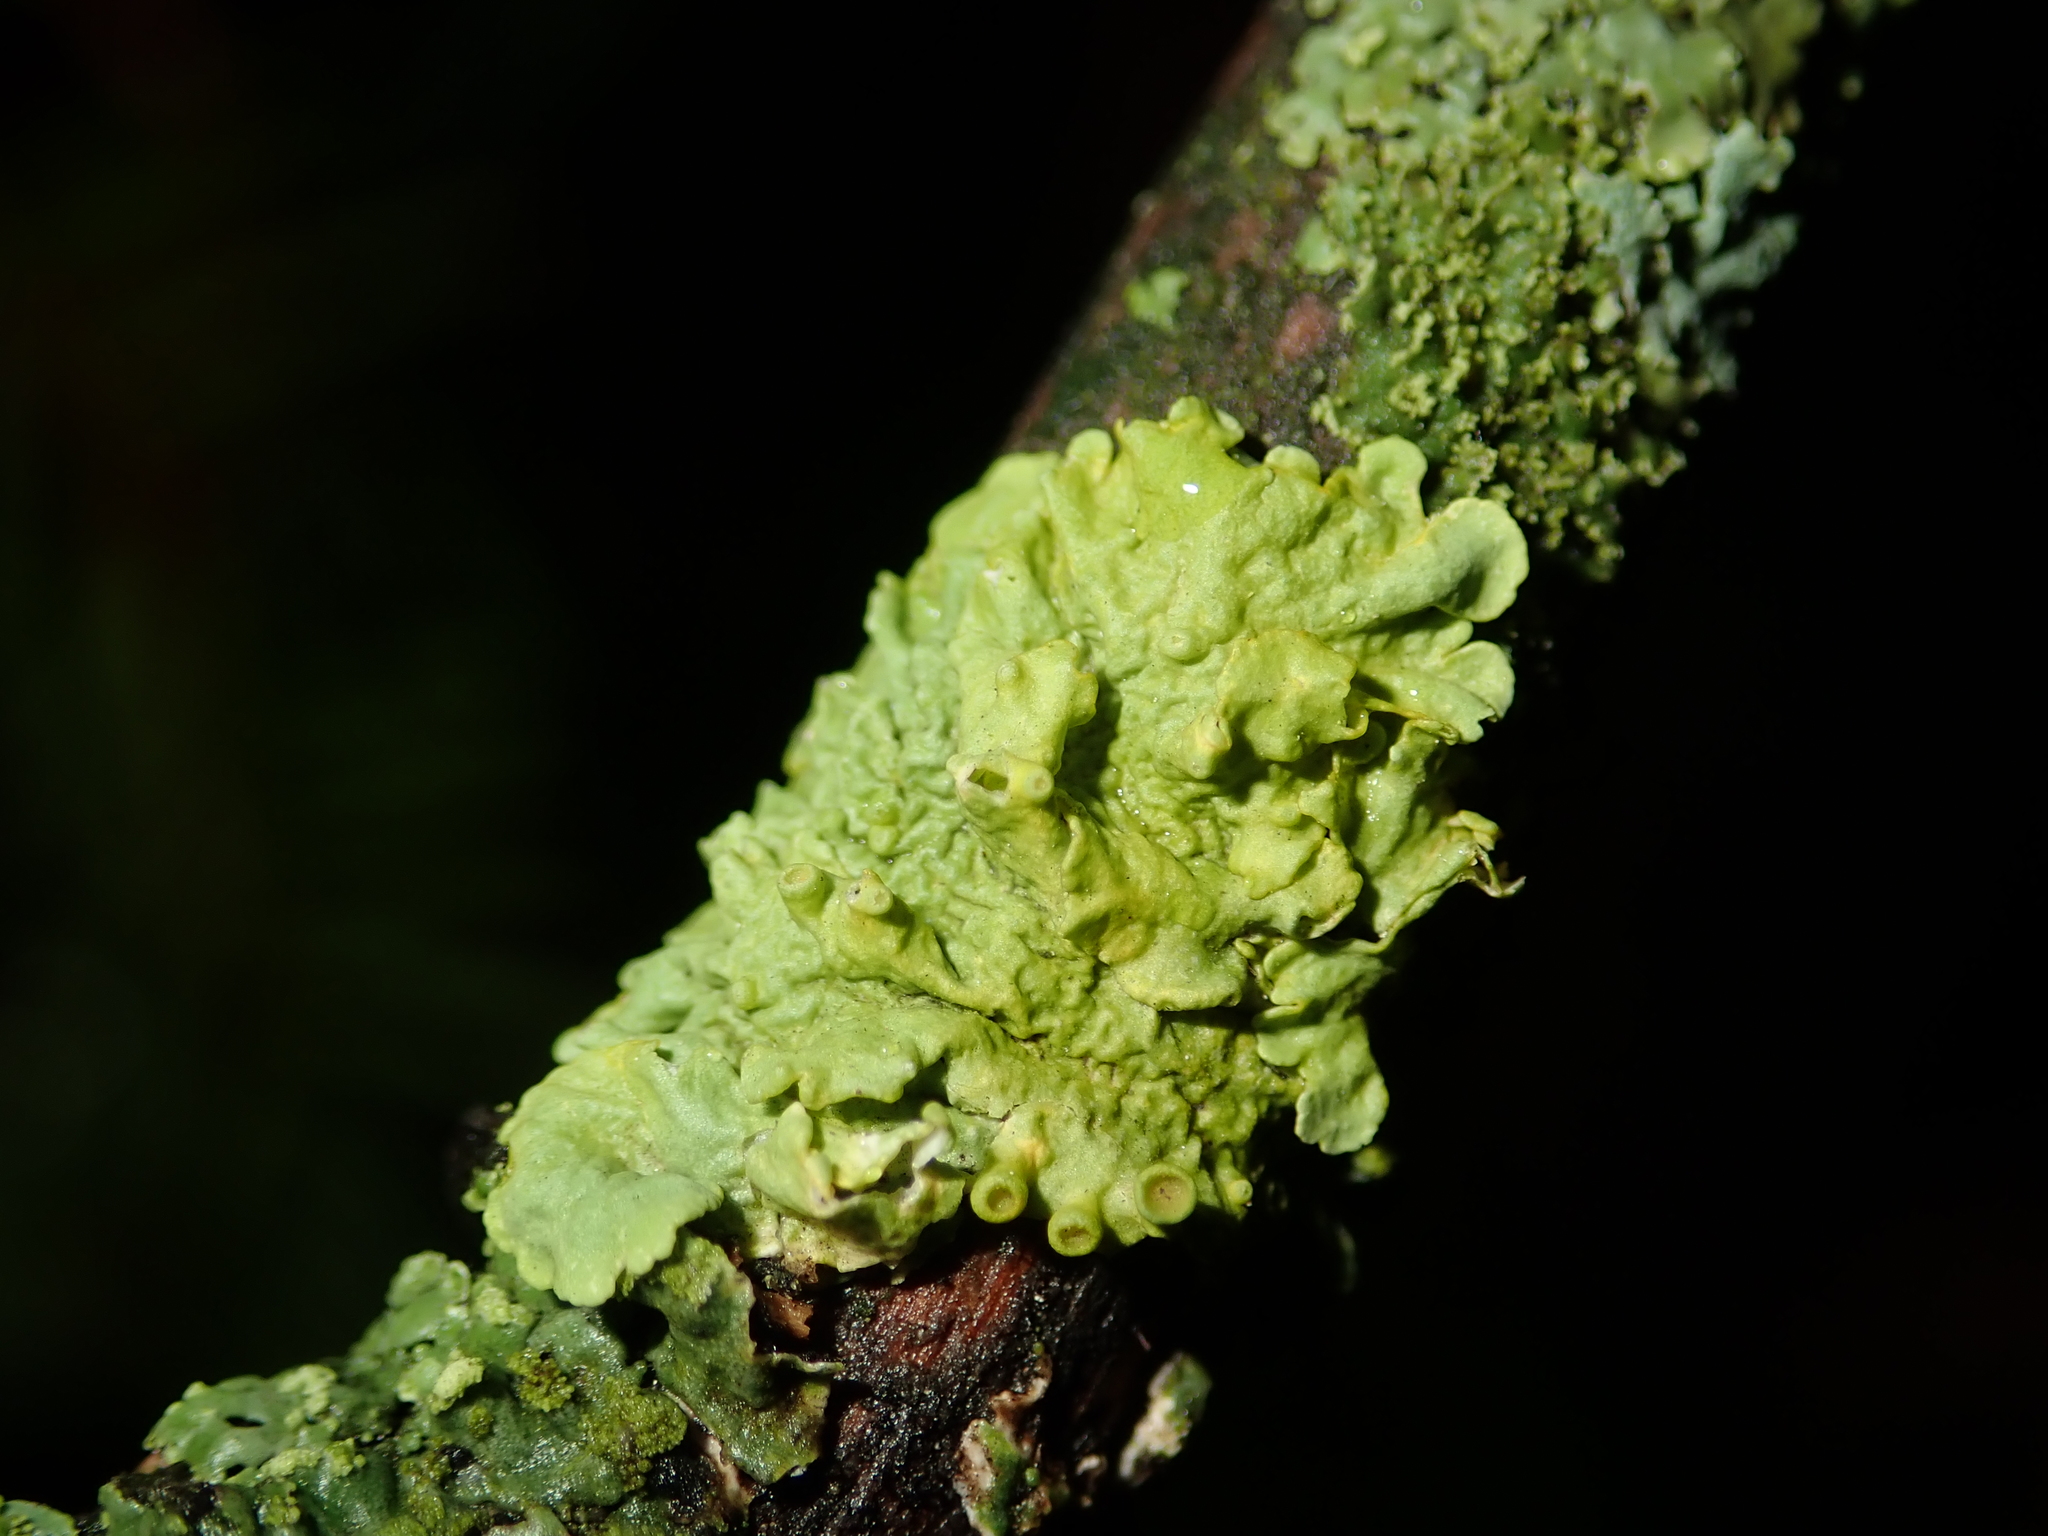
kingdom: Fungi
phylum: Ascomycota
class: Lecanoromycetes
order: Teloschistales
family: Teloschistaceae
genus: Xanthoria
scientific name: Xanthoria parietina
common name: Common orange lichen
